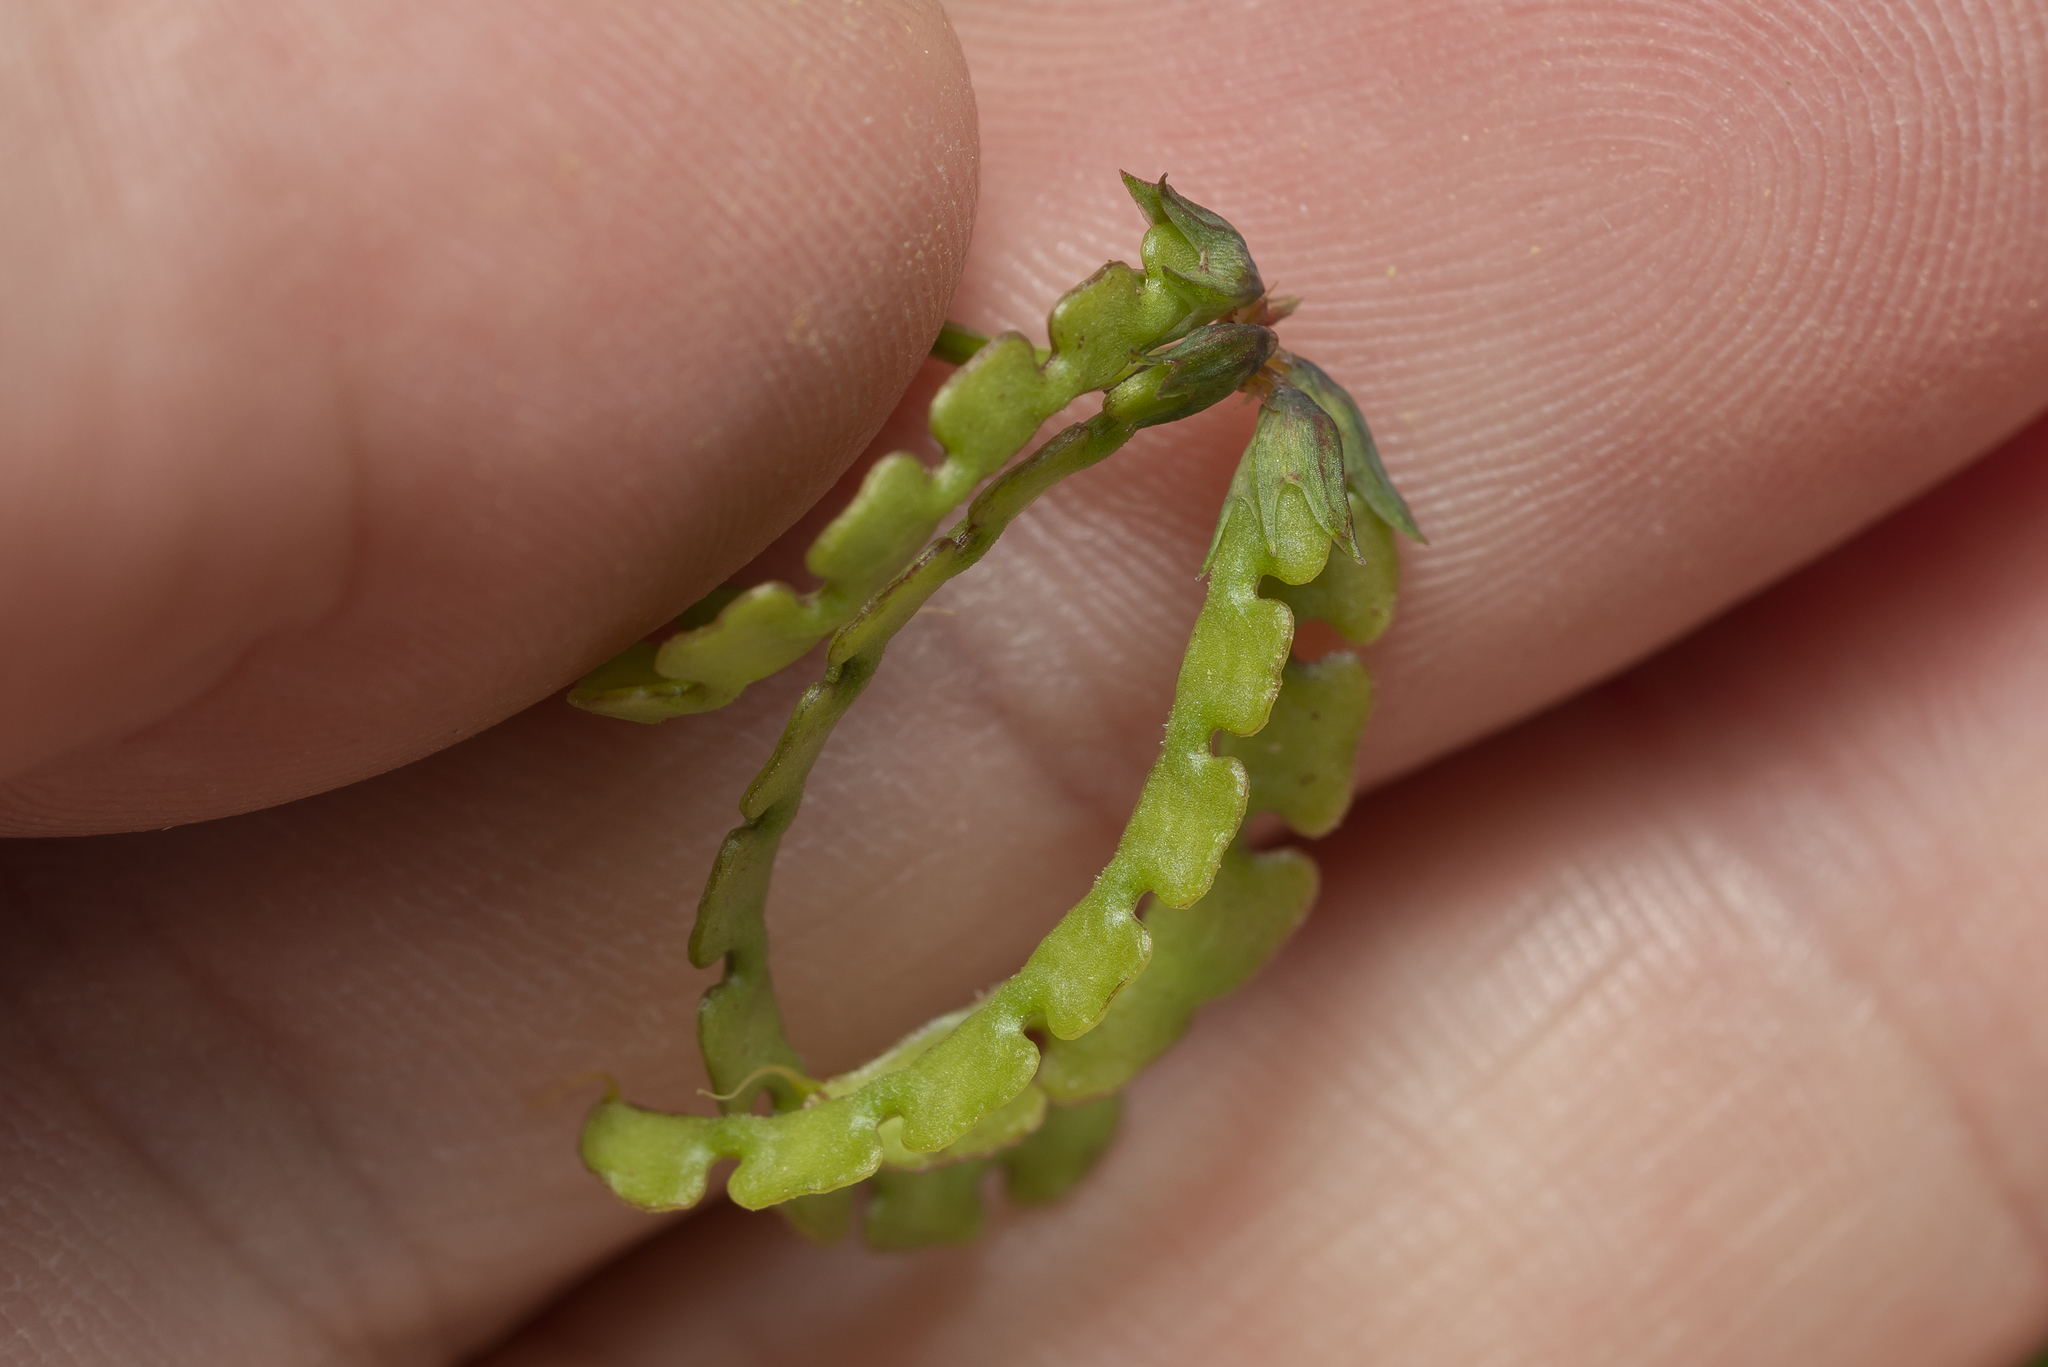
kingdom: Plantae
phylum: Tracheophyta
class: Magnoliopsida
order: Fabales
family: Fabaceae
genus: Hippocrepis
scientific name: Hippocrepis multisiliquosa
